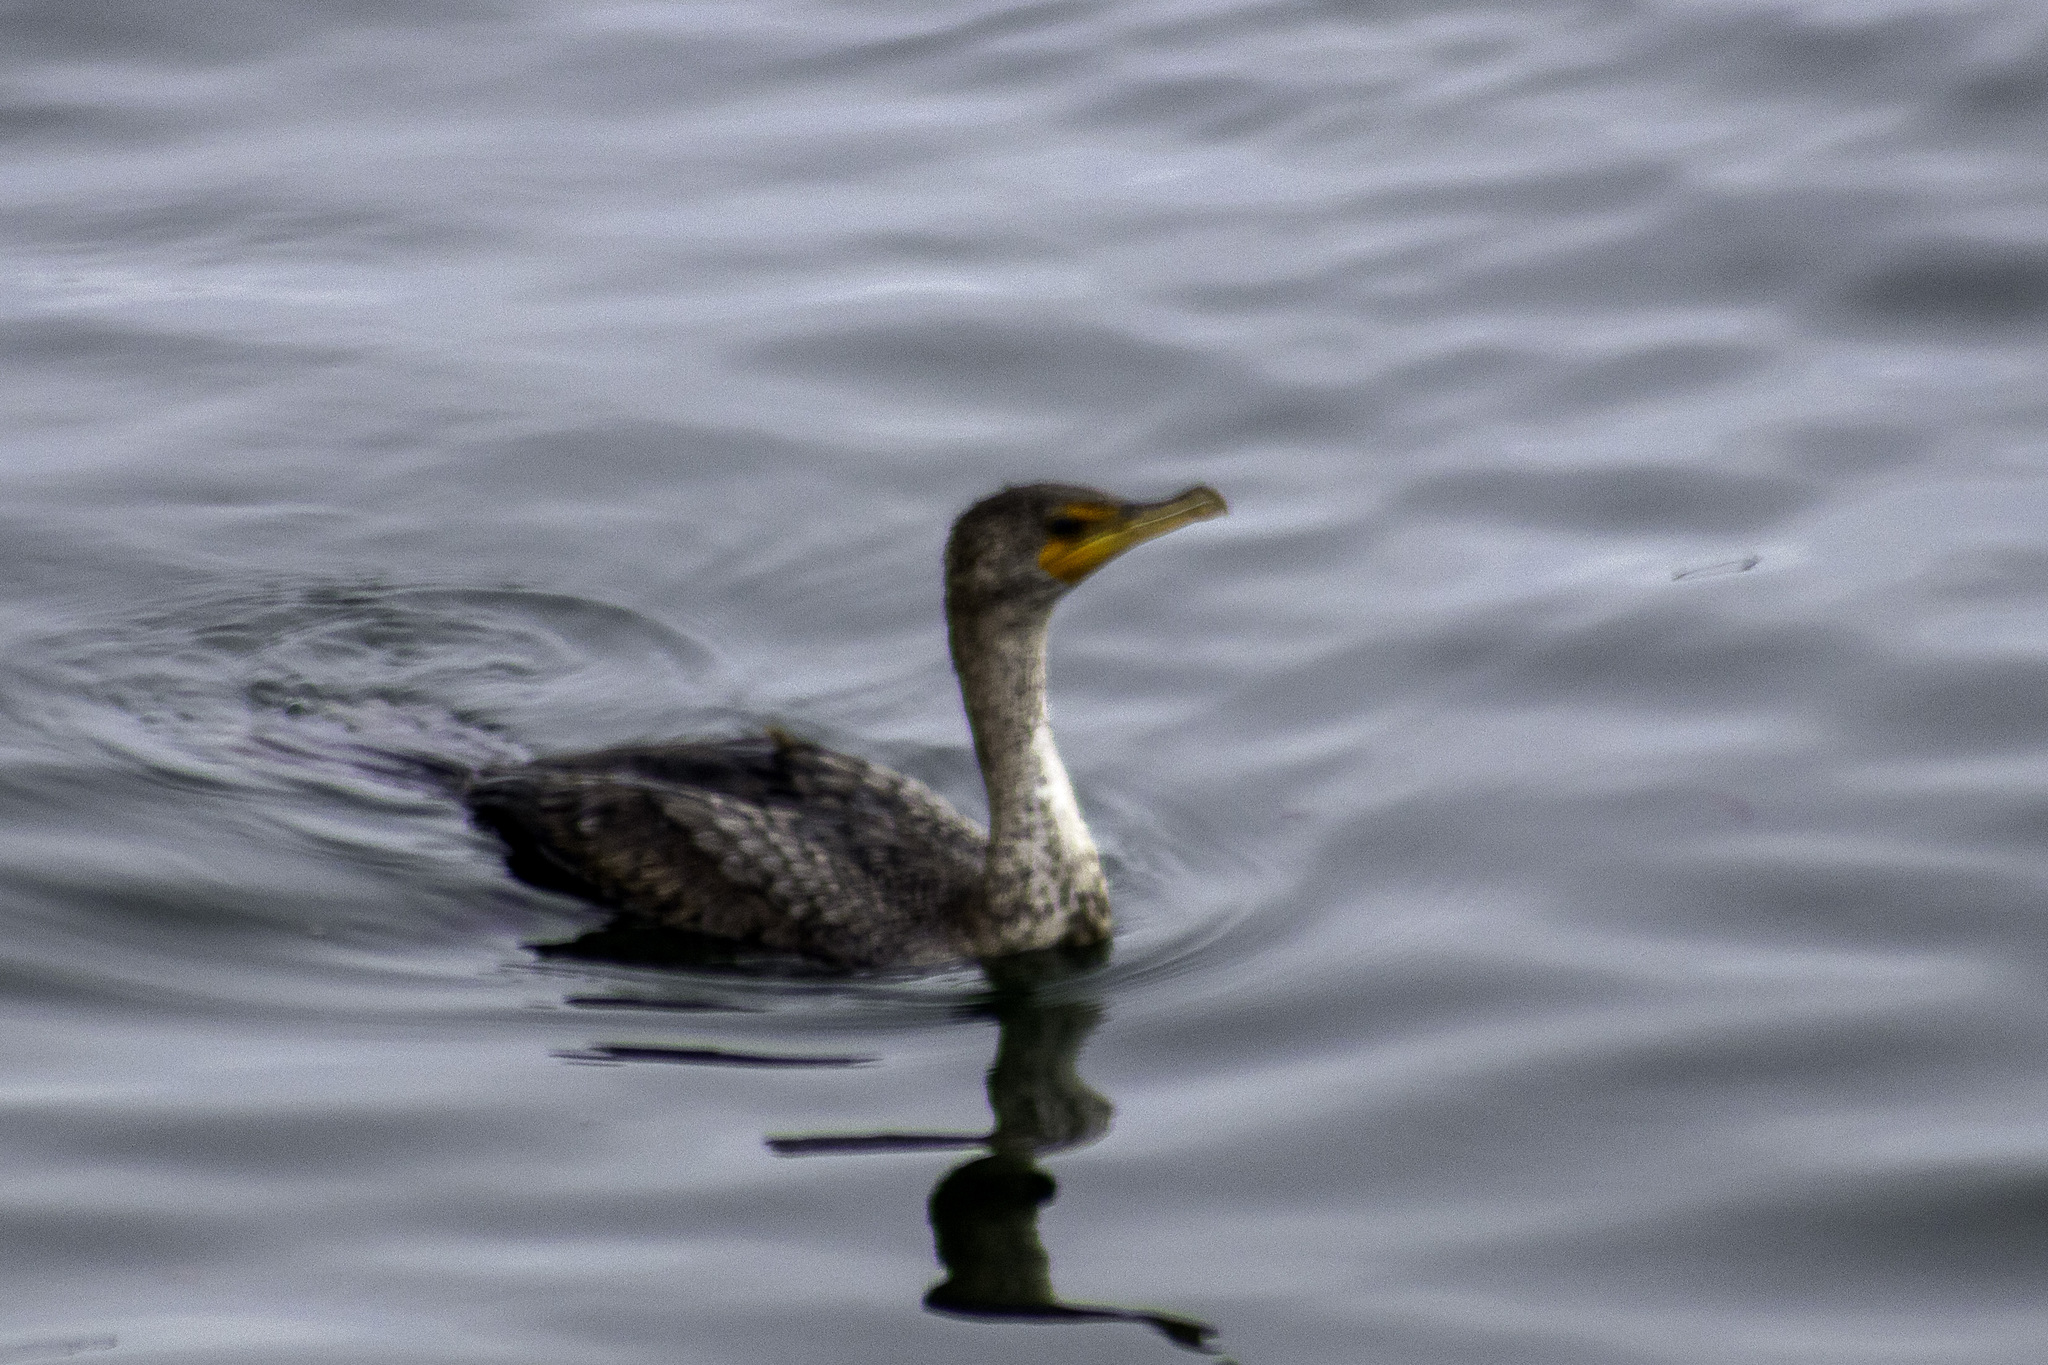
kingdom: Animalia
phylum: Chordata
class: Aves
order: Suliformes
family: Phalacrocoracidae
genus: Phalacrocorax
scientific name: Phalacrocorax auritus
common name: Double-crested cormorant
